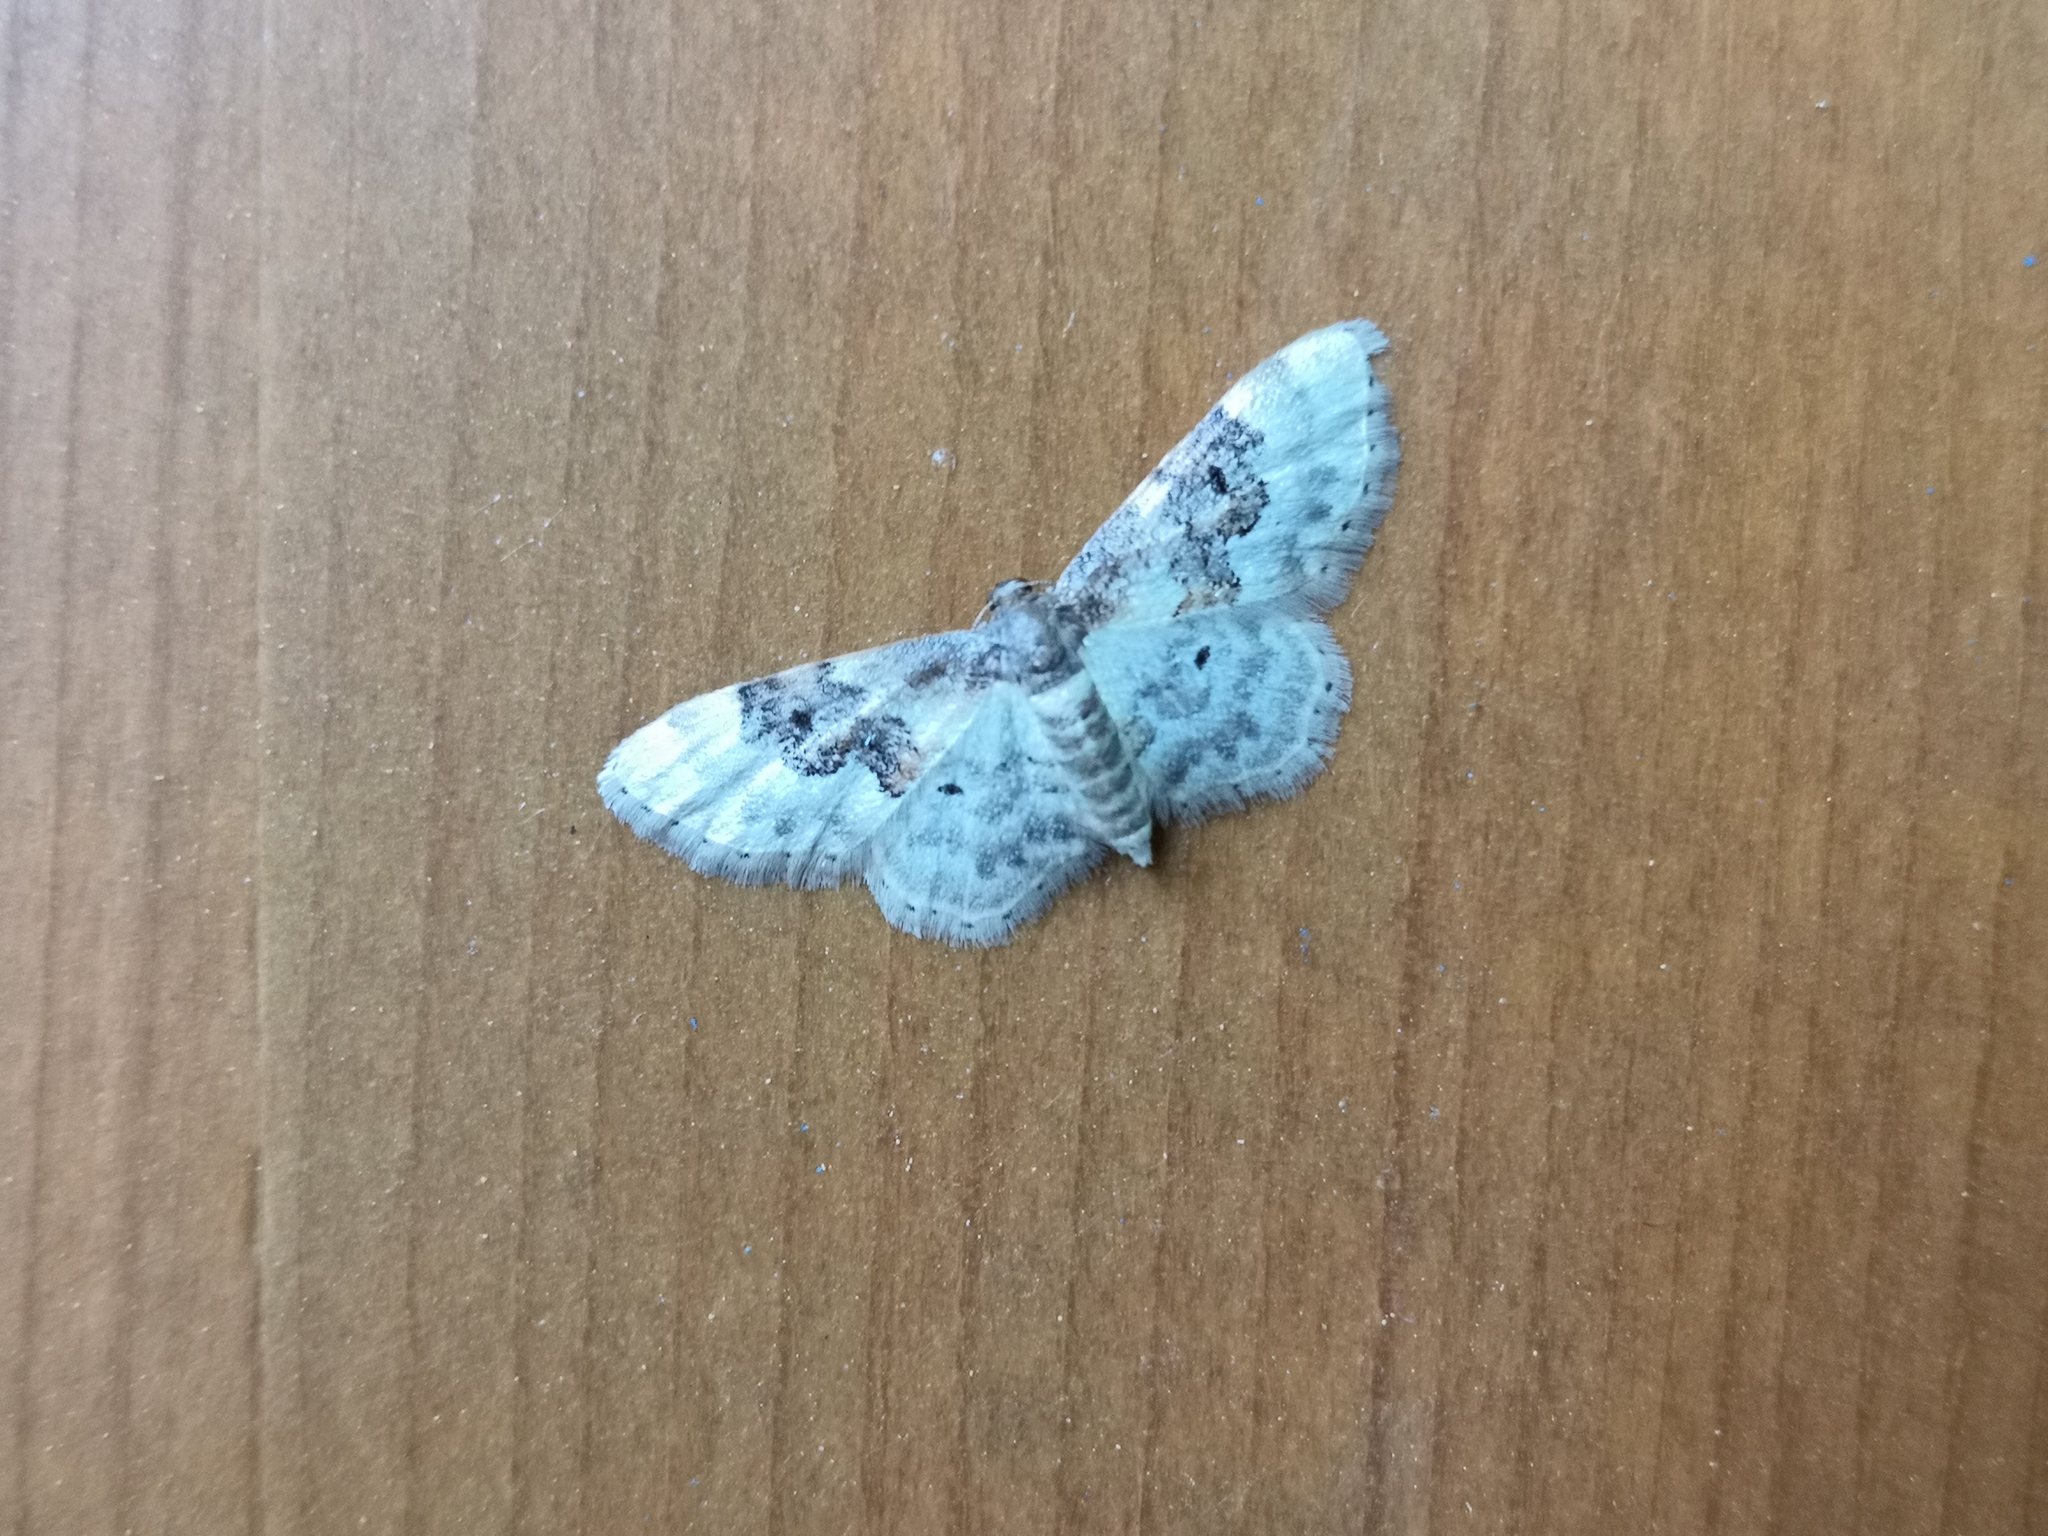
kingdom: Animalia
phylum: Arthropoda
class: Insecta
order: Lepidoptera
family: Geometridae
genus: Idaea
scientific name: Idaea rusticata
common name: Least carpet
